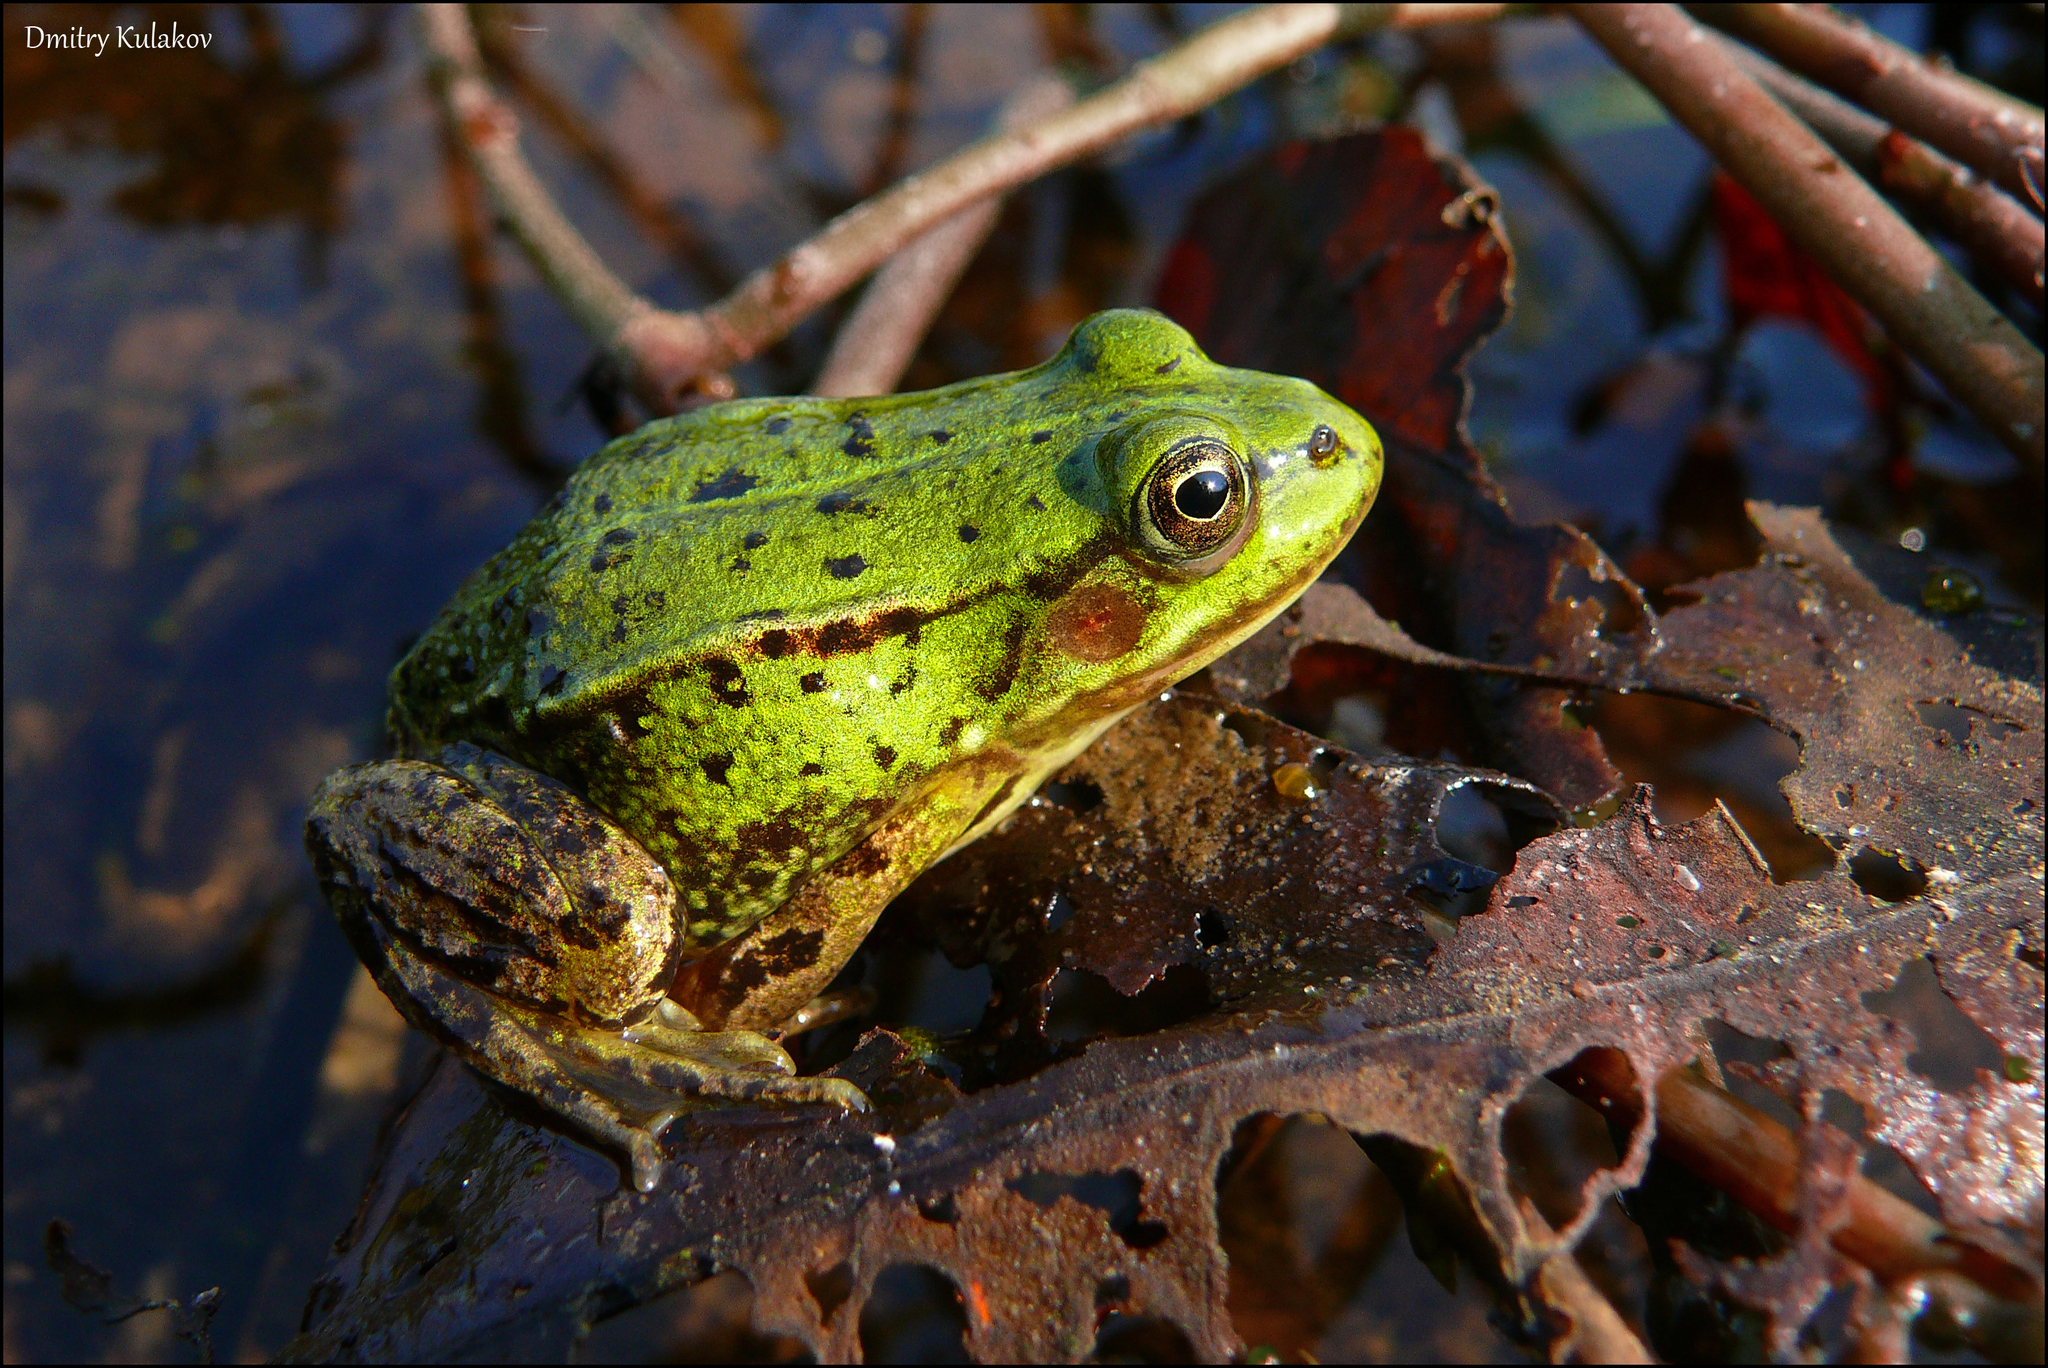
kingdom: Animalia
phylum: Chordata
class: Amphibia
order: Anura
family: Ranidae
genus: Pelophylax
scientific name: Pelophylax lessonae
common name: Pool frog
